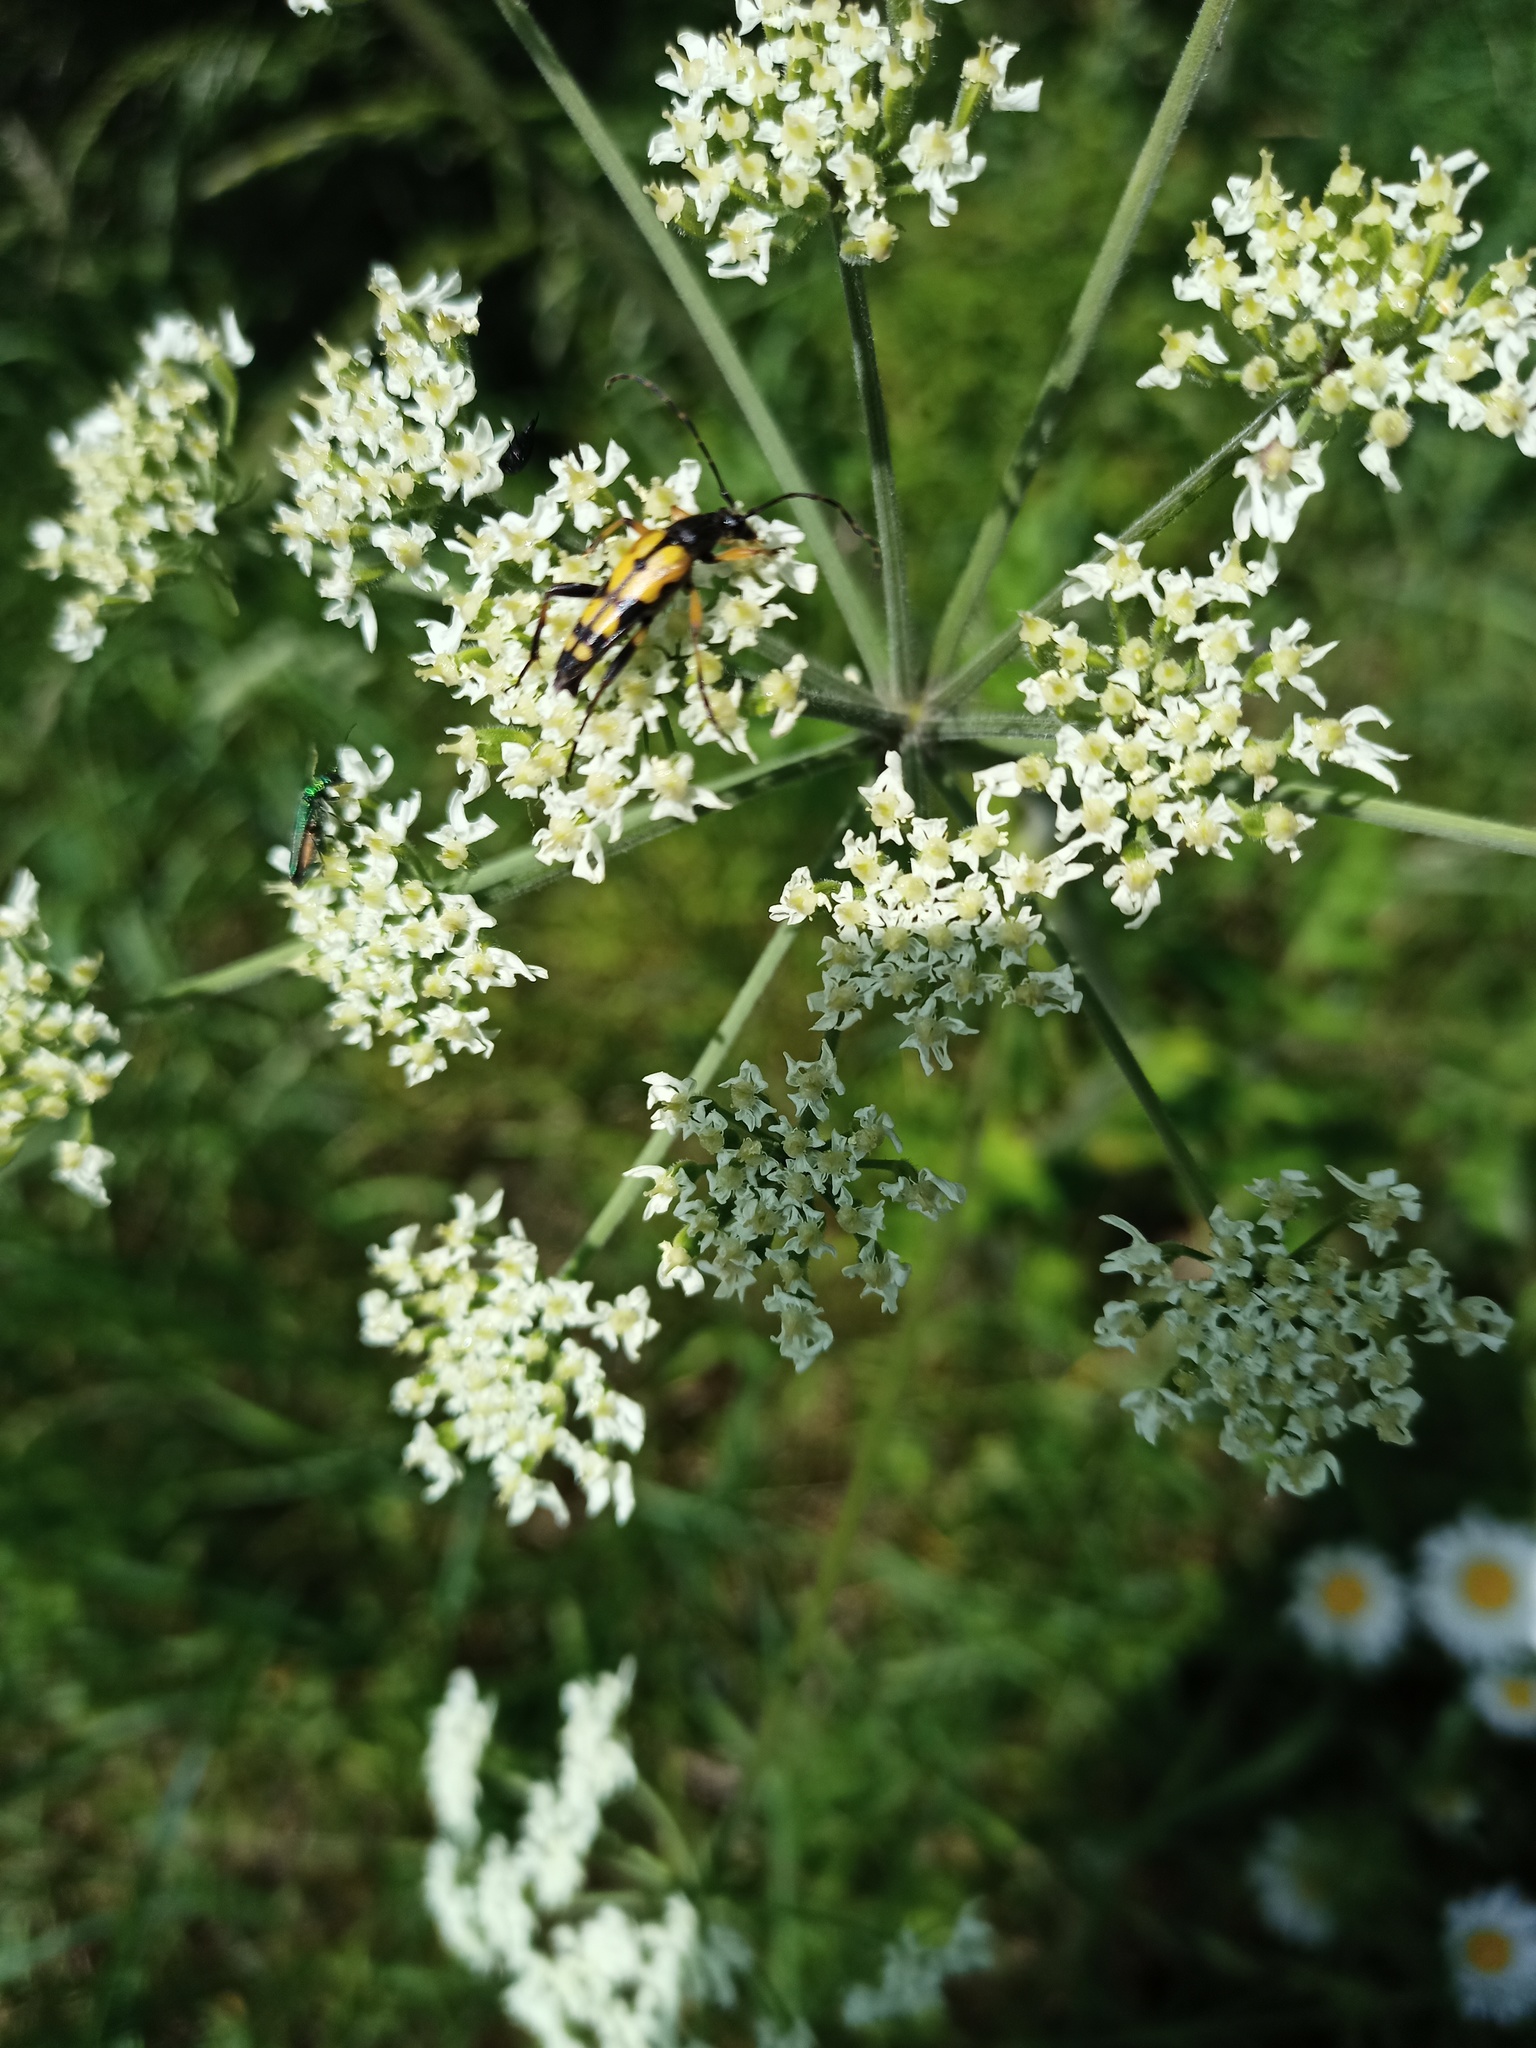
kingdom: Animalia
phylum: Arthropoda
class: Insecta
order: Coleoptera
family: Cerambycidae
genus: Rutpela
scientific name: Rutpela maculata
